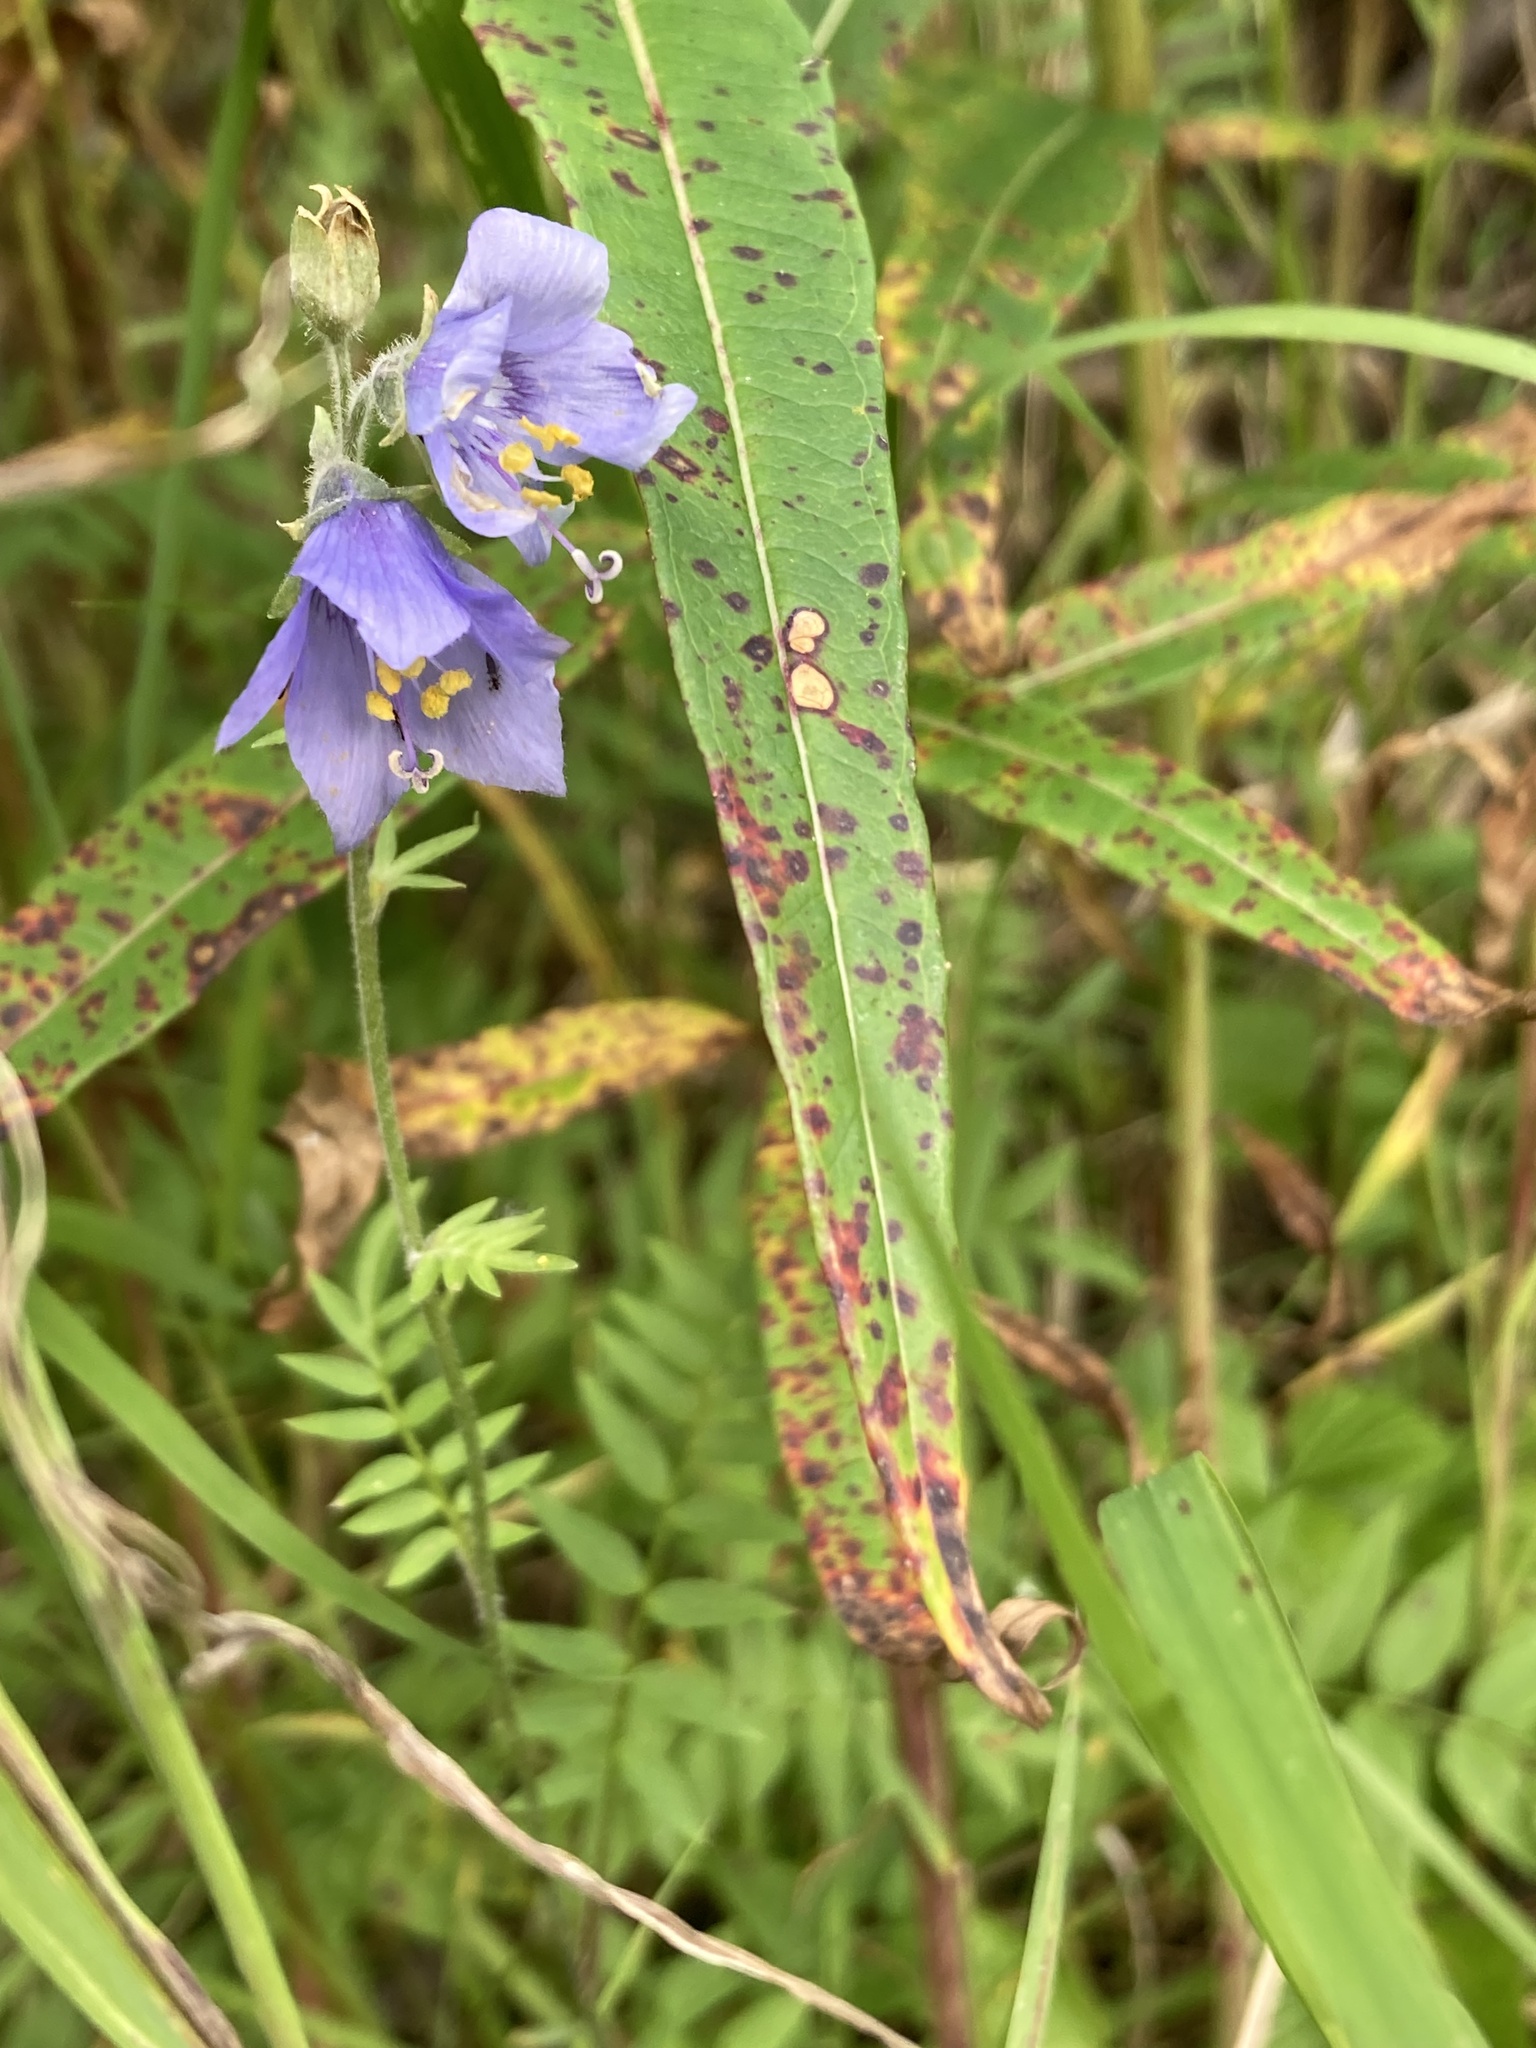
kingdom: Plantae
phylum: Tracheophyta
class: Magnoliopsida
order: Ericales
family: Polemoniaceae
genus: Polemonium
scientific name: Polemonium acutiflorum
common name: Tall jacob's-ladder
